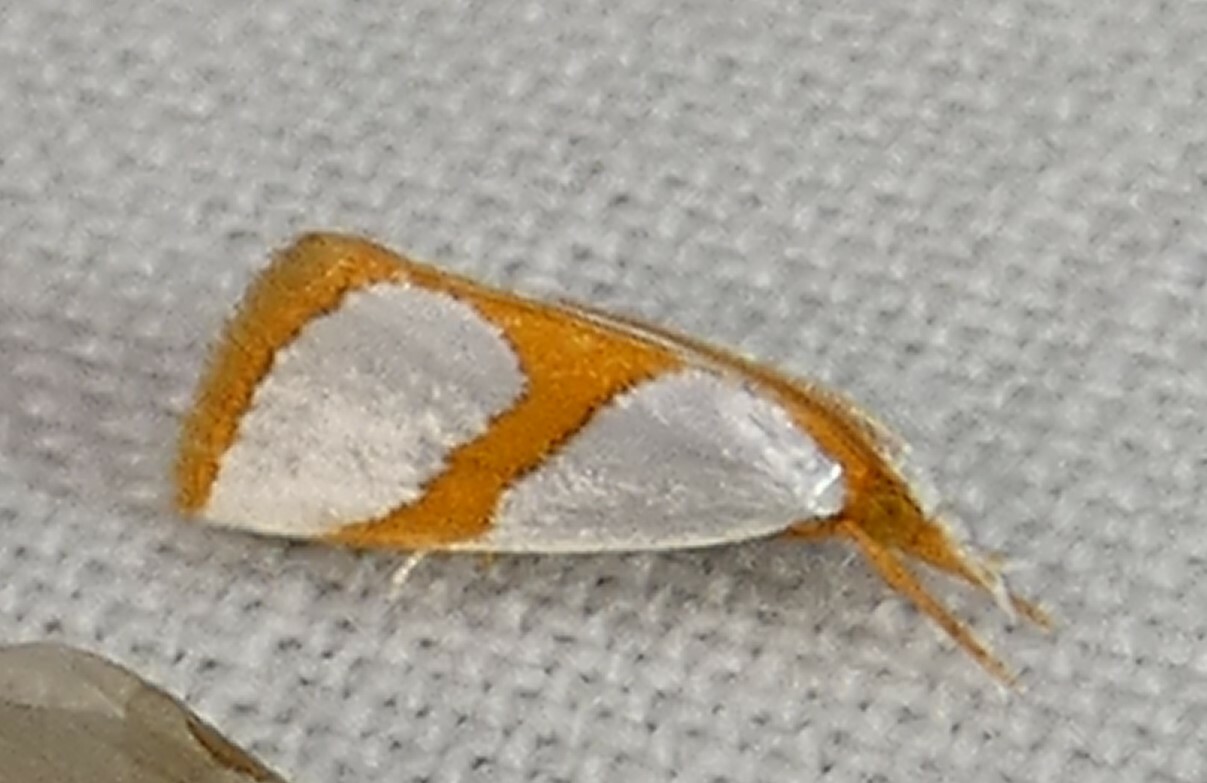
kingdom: Animalia
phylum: Arthropoda
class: Insecta
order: Lepidoptera
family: Crambidae
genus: Argyria
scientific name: Argyria auratella
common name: Curve-lined argyria moth
